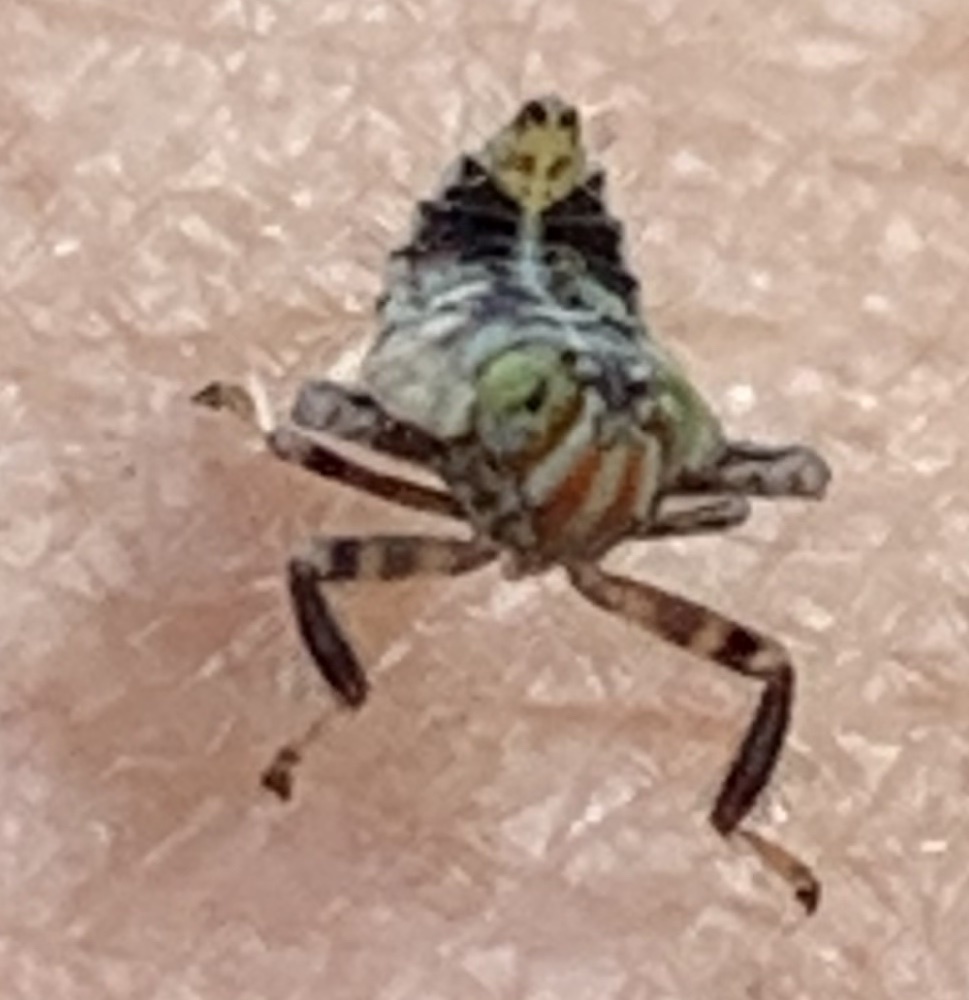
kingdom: Animalia
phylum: Arthropoda
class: Insecta
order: Hemiptera
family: Cicadellidae
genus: Jikradia
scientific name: Jikradia olitoria
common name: Coppery leafhopper
